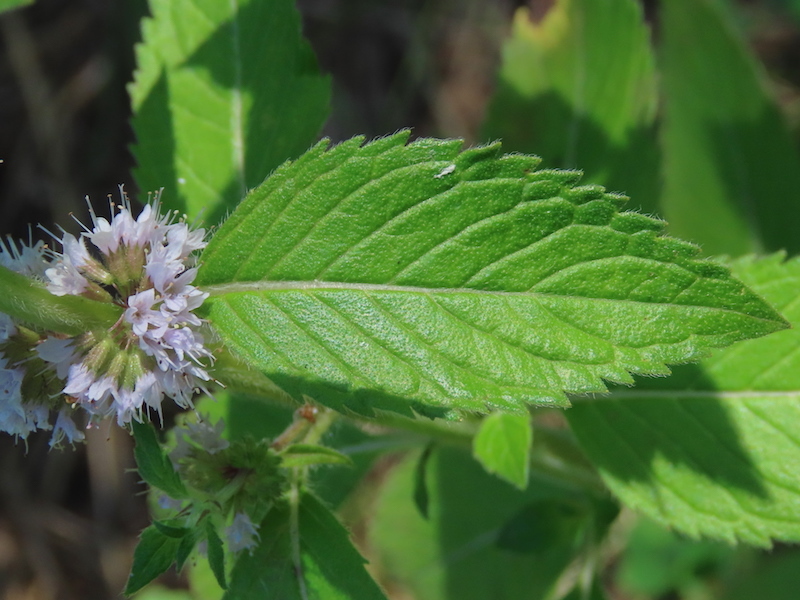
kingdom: Plantae
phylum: Tracheophyta
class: Magnoliopsida
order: Lamiales
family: Lamiaceae
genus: Mentha
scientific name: Mentha canadensis
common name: American corn mint
